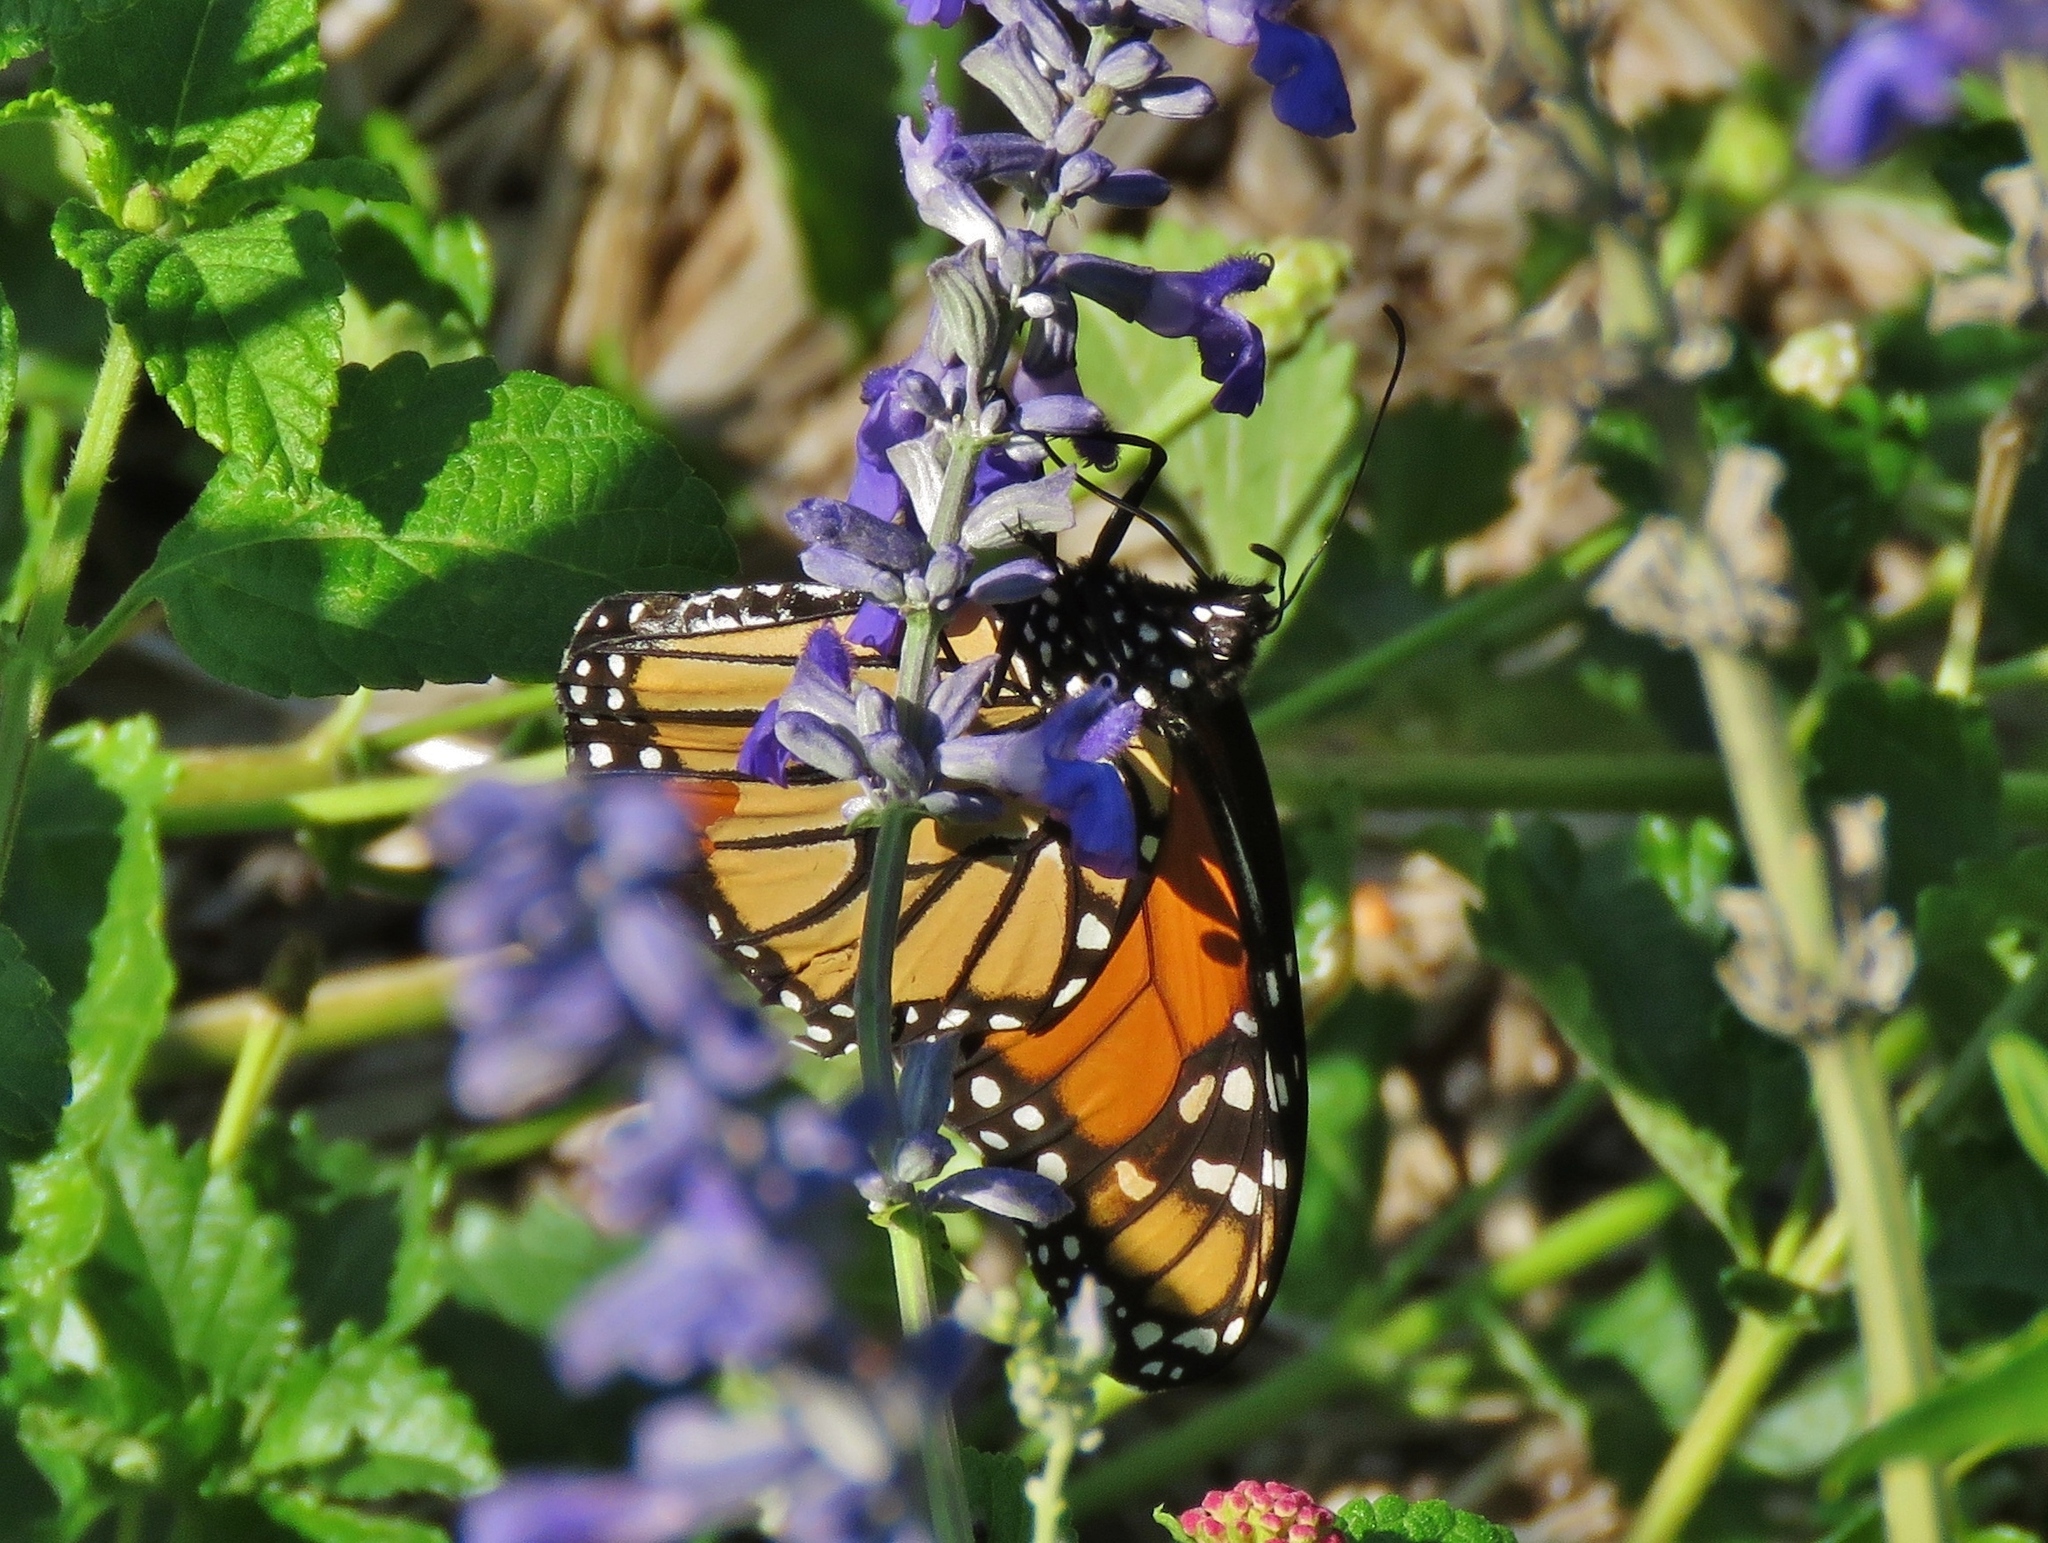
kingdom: Animalia
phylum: Arthropoda
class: Insecta
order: Lepidoptera
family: Nymphalidae
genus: Danaus
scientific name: Danaus plexippus
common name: Monarch
